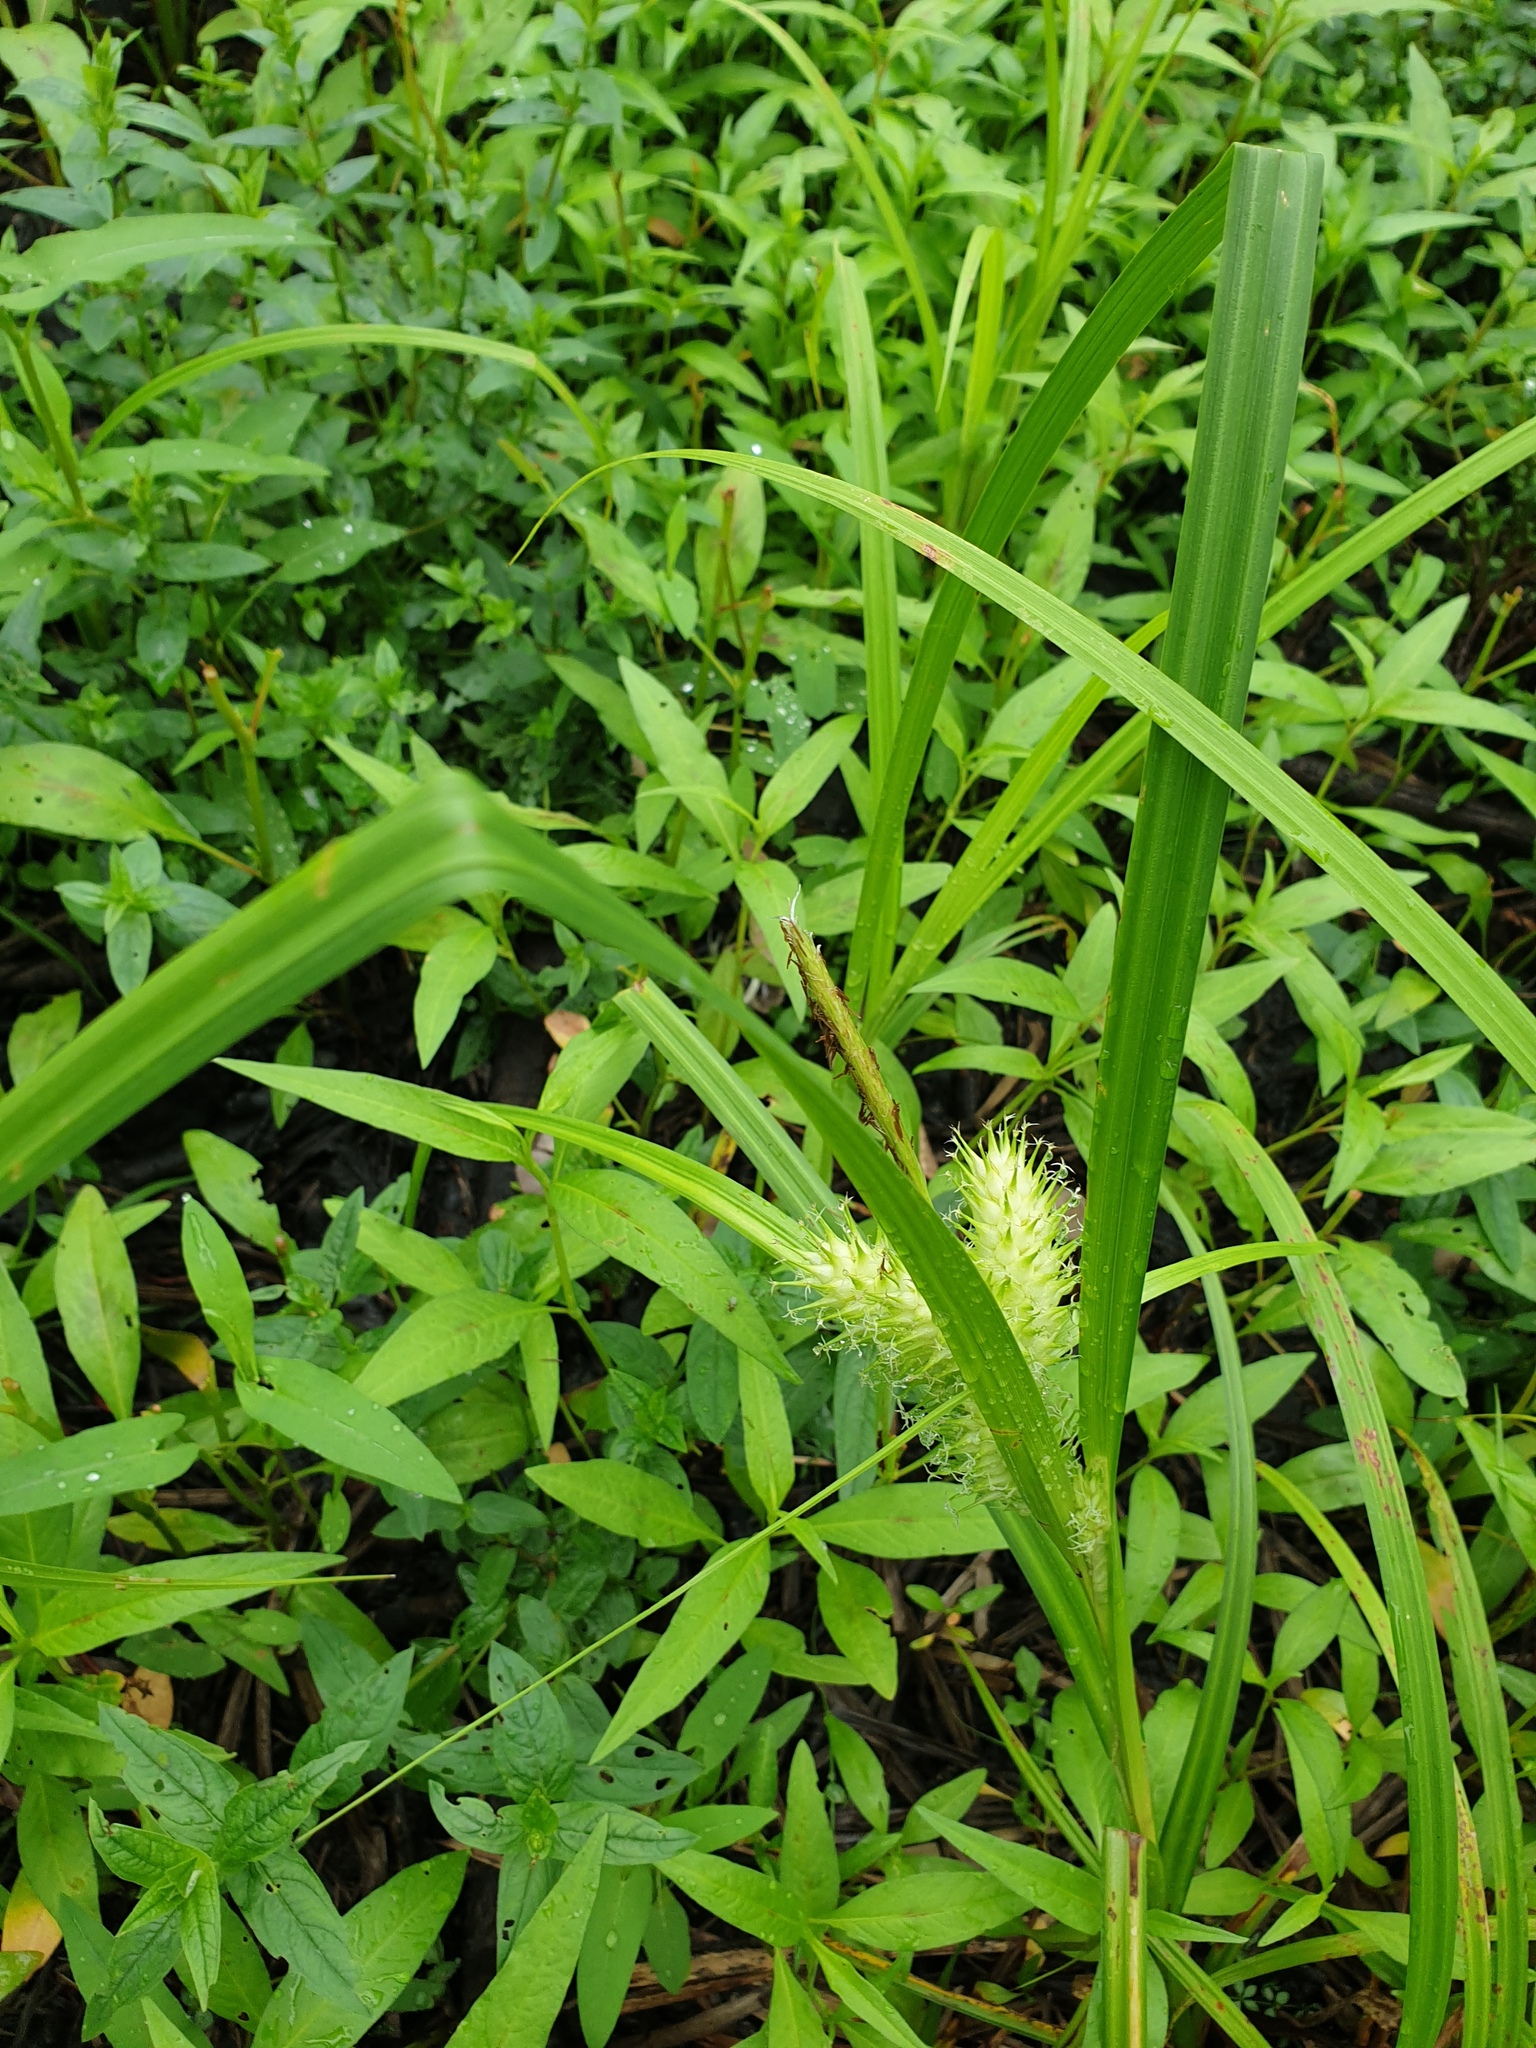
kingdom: Plantae
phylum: Tracheophyta
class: Liliopsida
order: Poales
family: Cyperaceae
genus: Carex
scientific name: Carex lupulina
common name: Hop sedge
